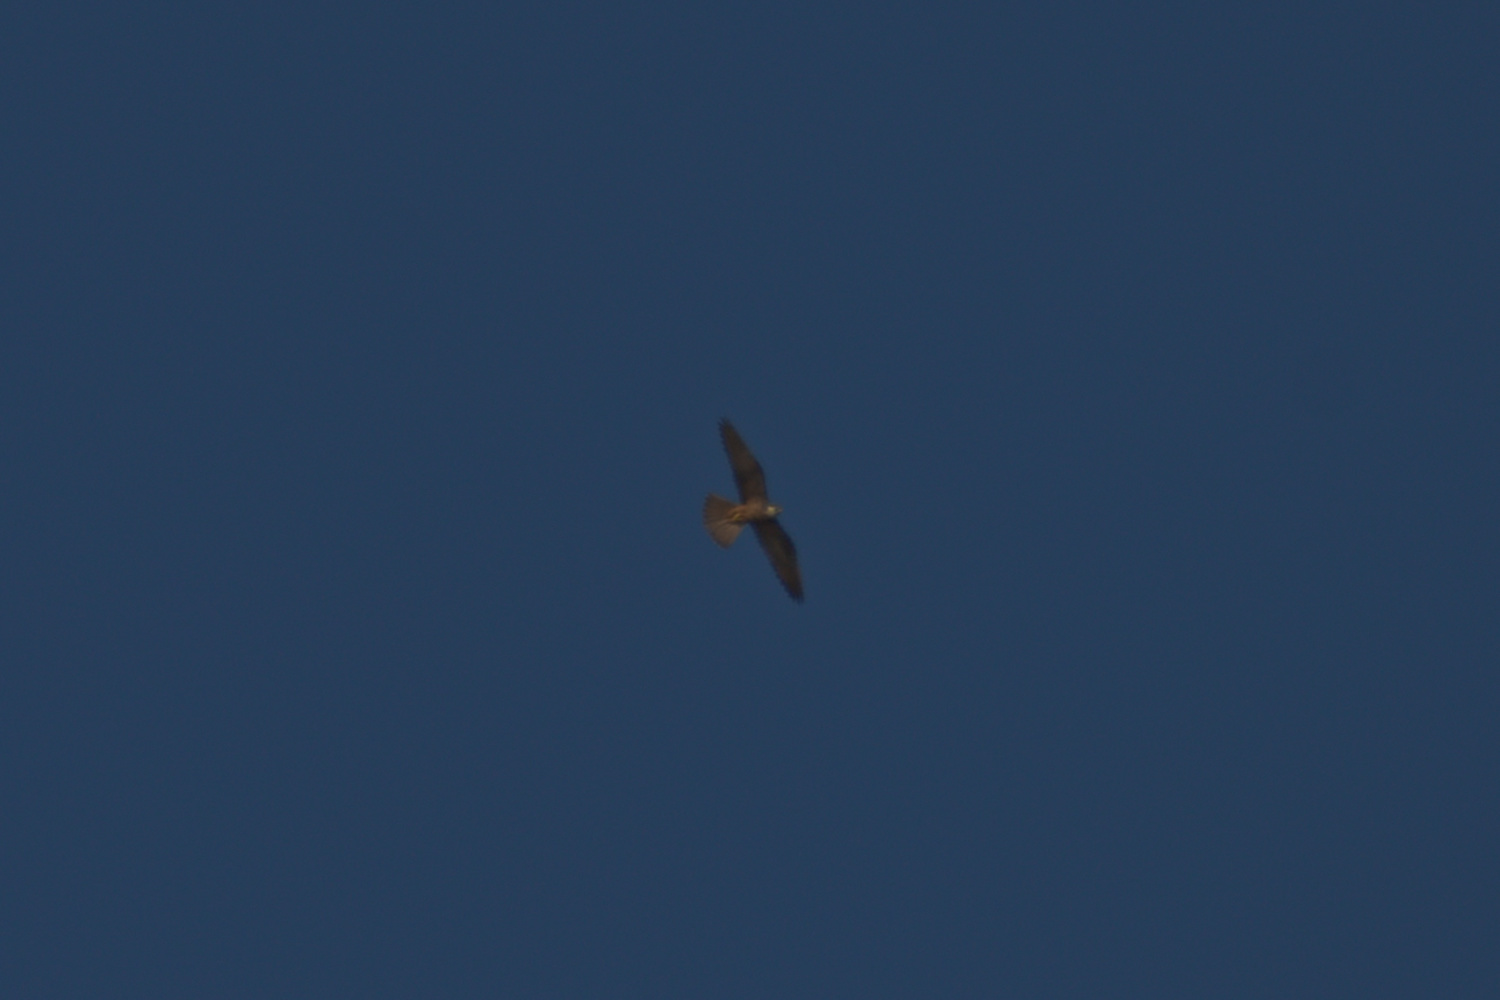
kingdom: Animalia
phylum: Chordata
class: Aves
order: Falconiformes
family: Falconidae
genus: Falco
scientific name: Falco eleonorae
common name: Eleonora's falcon
